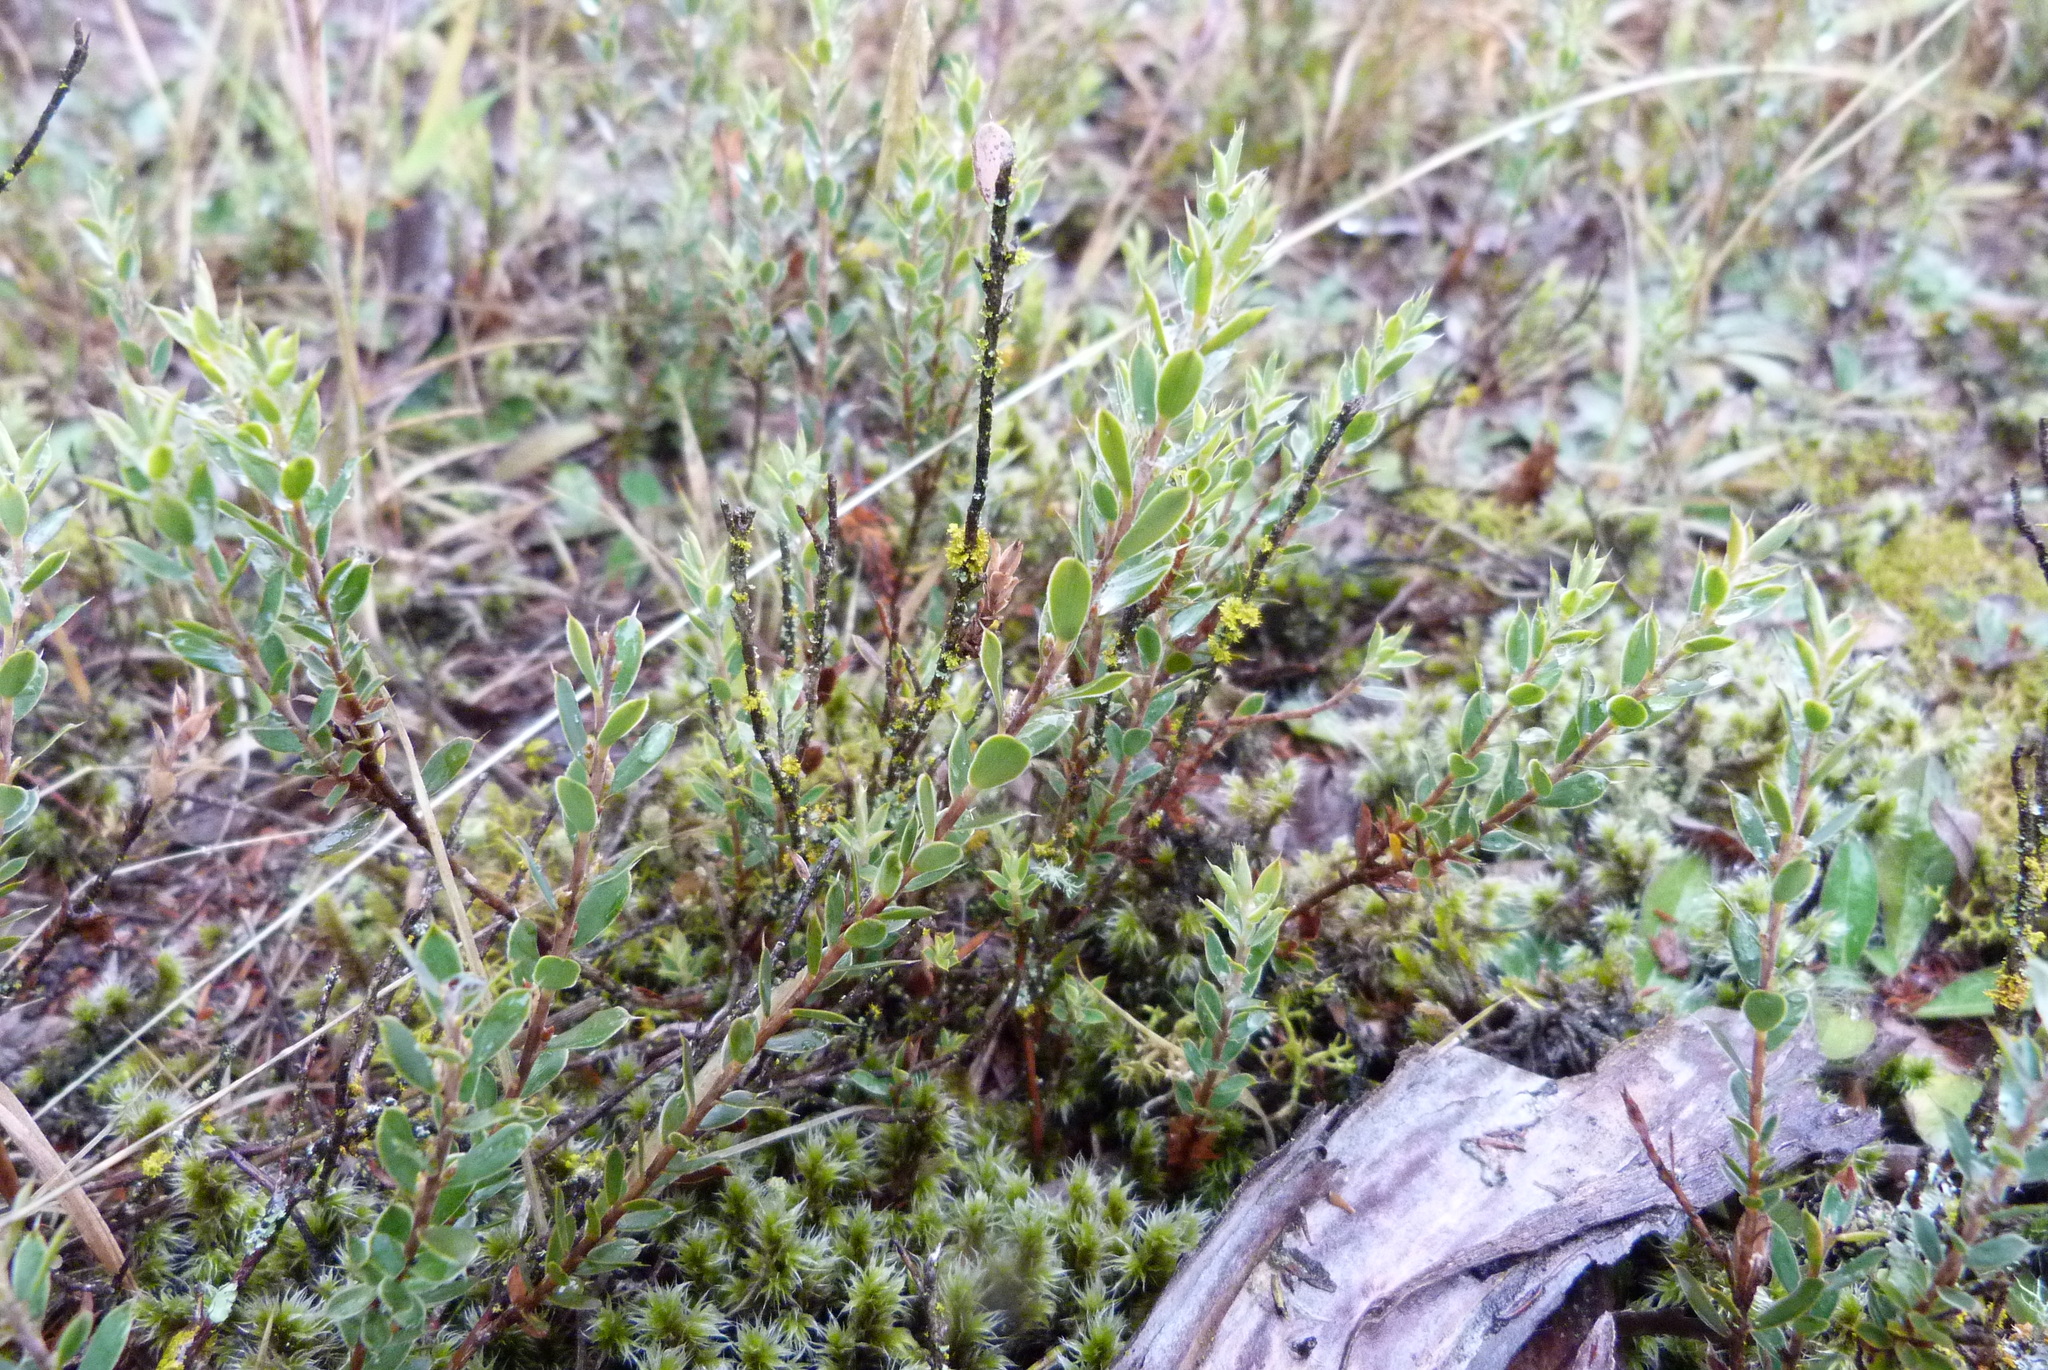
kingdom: Plantae
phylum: Tracheophyta
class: Magnoliopsida
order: Ericales
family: Ericaceae
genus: Styphelia
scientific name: Styphelia nesophila
